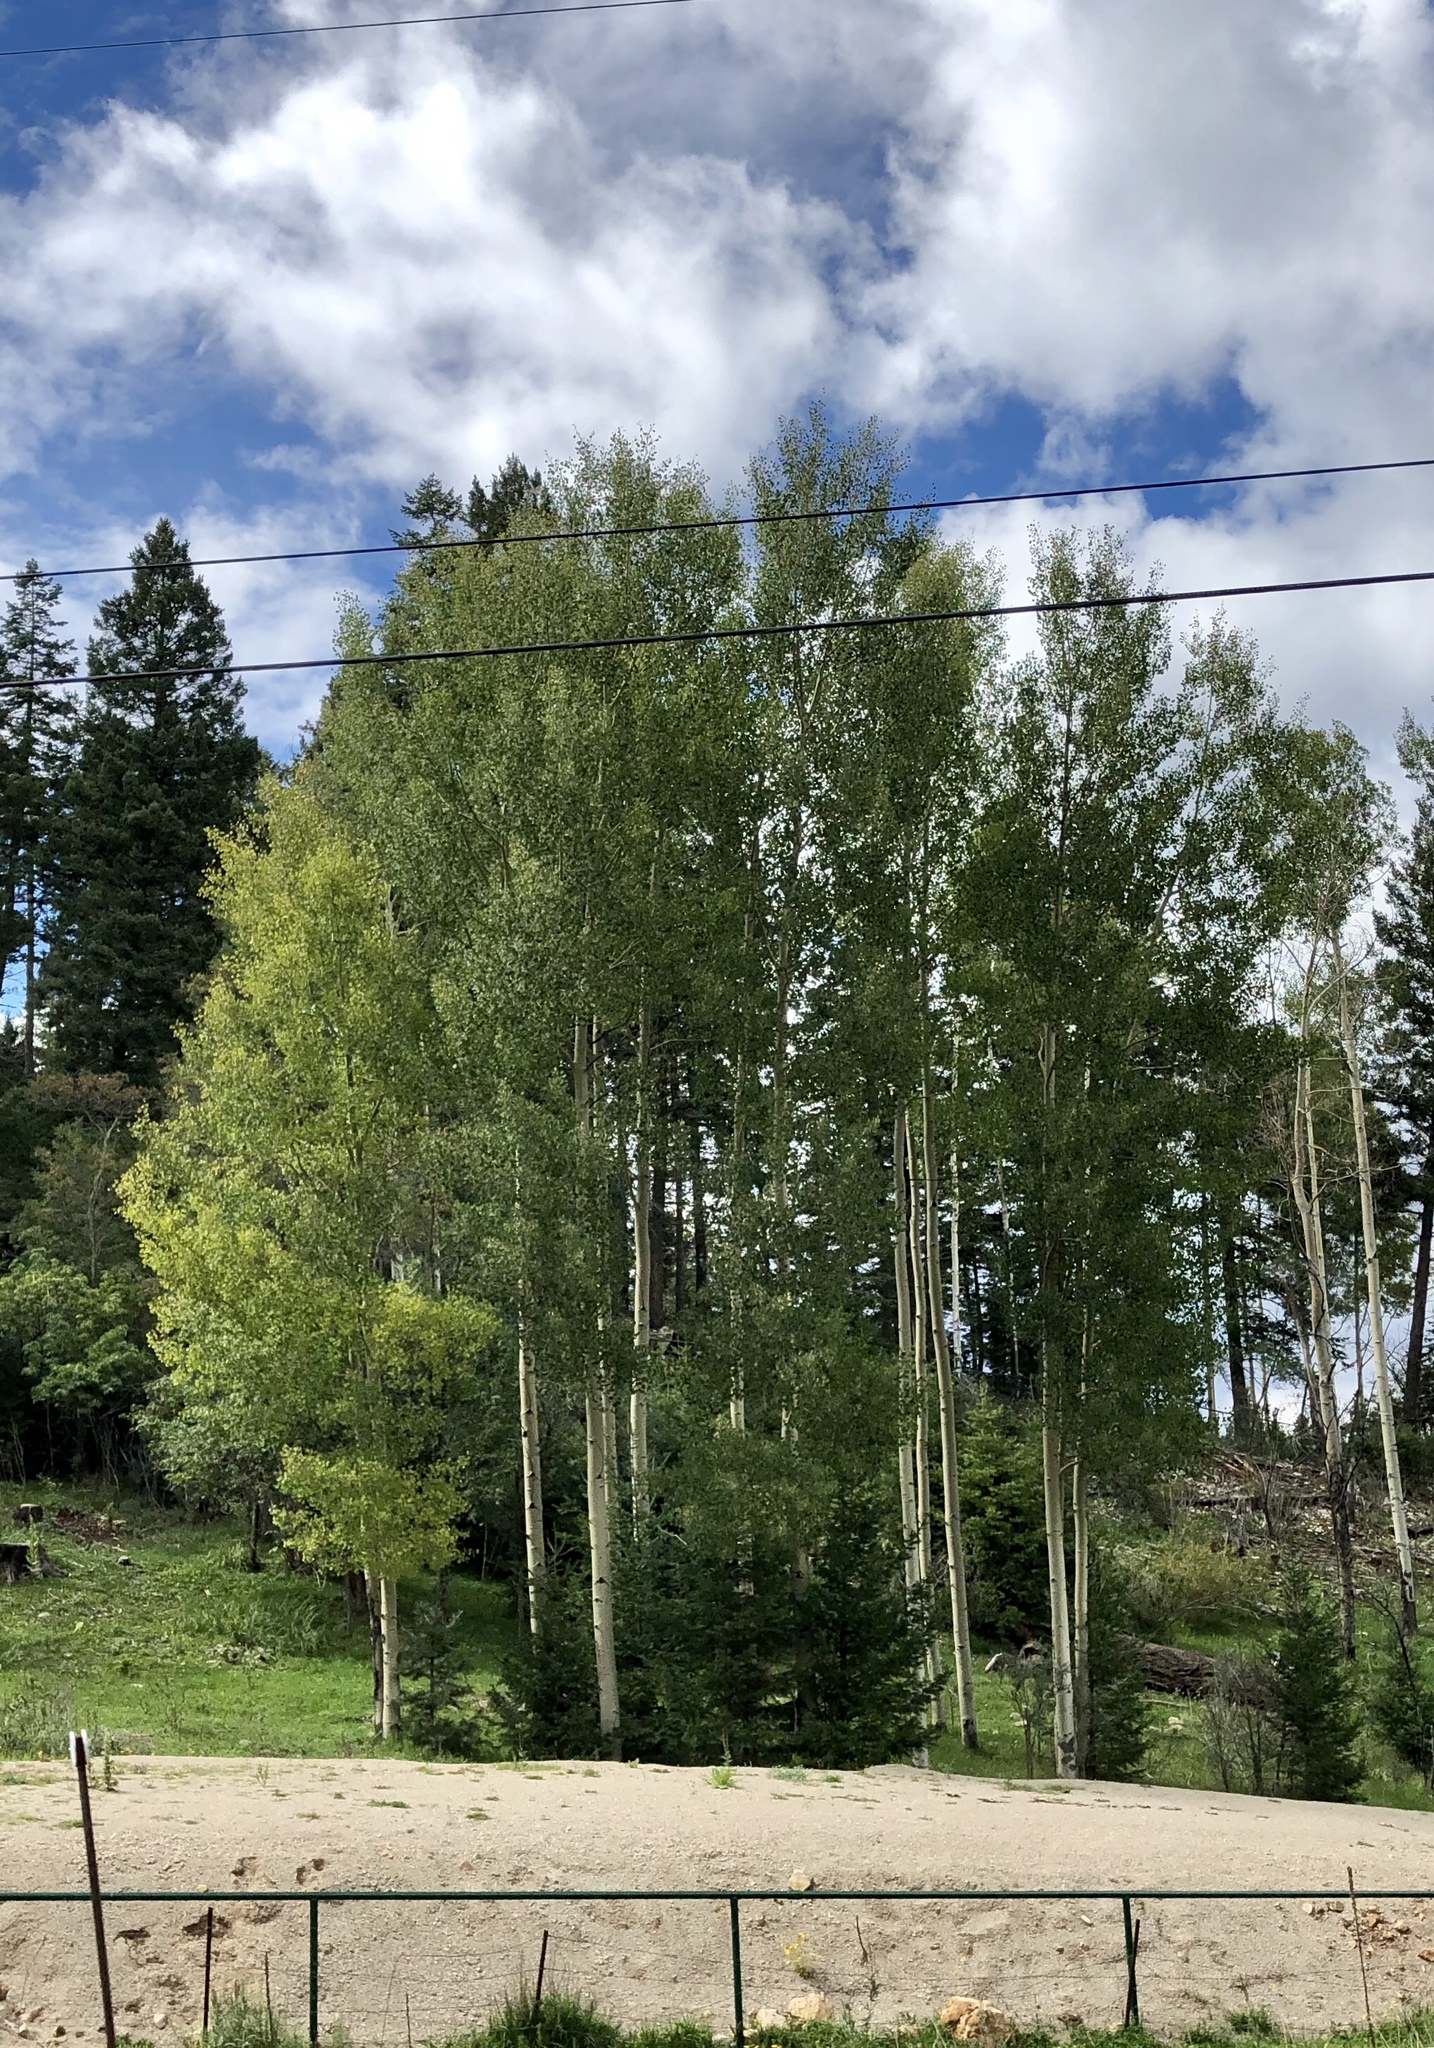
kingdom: Plantae
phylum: Tracheophyta
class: Magnoliopsida
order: Malpighiales
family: Salicaceae
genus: Populus
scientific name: Populus tremuloides
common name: Quaking aspen
